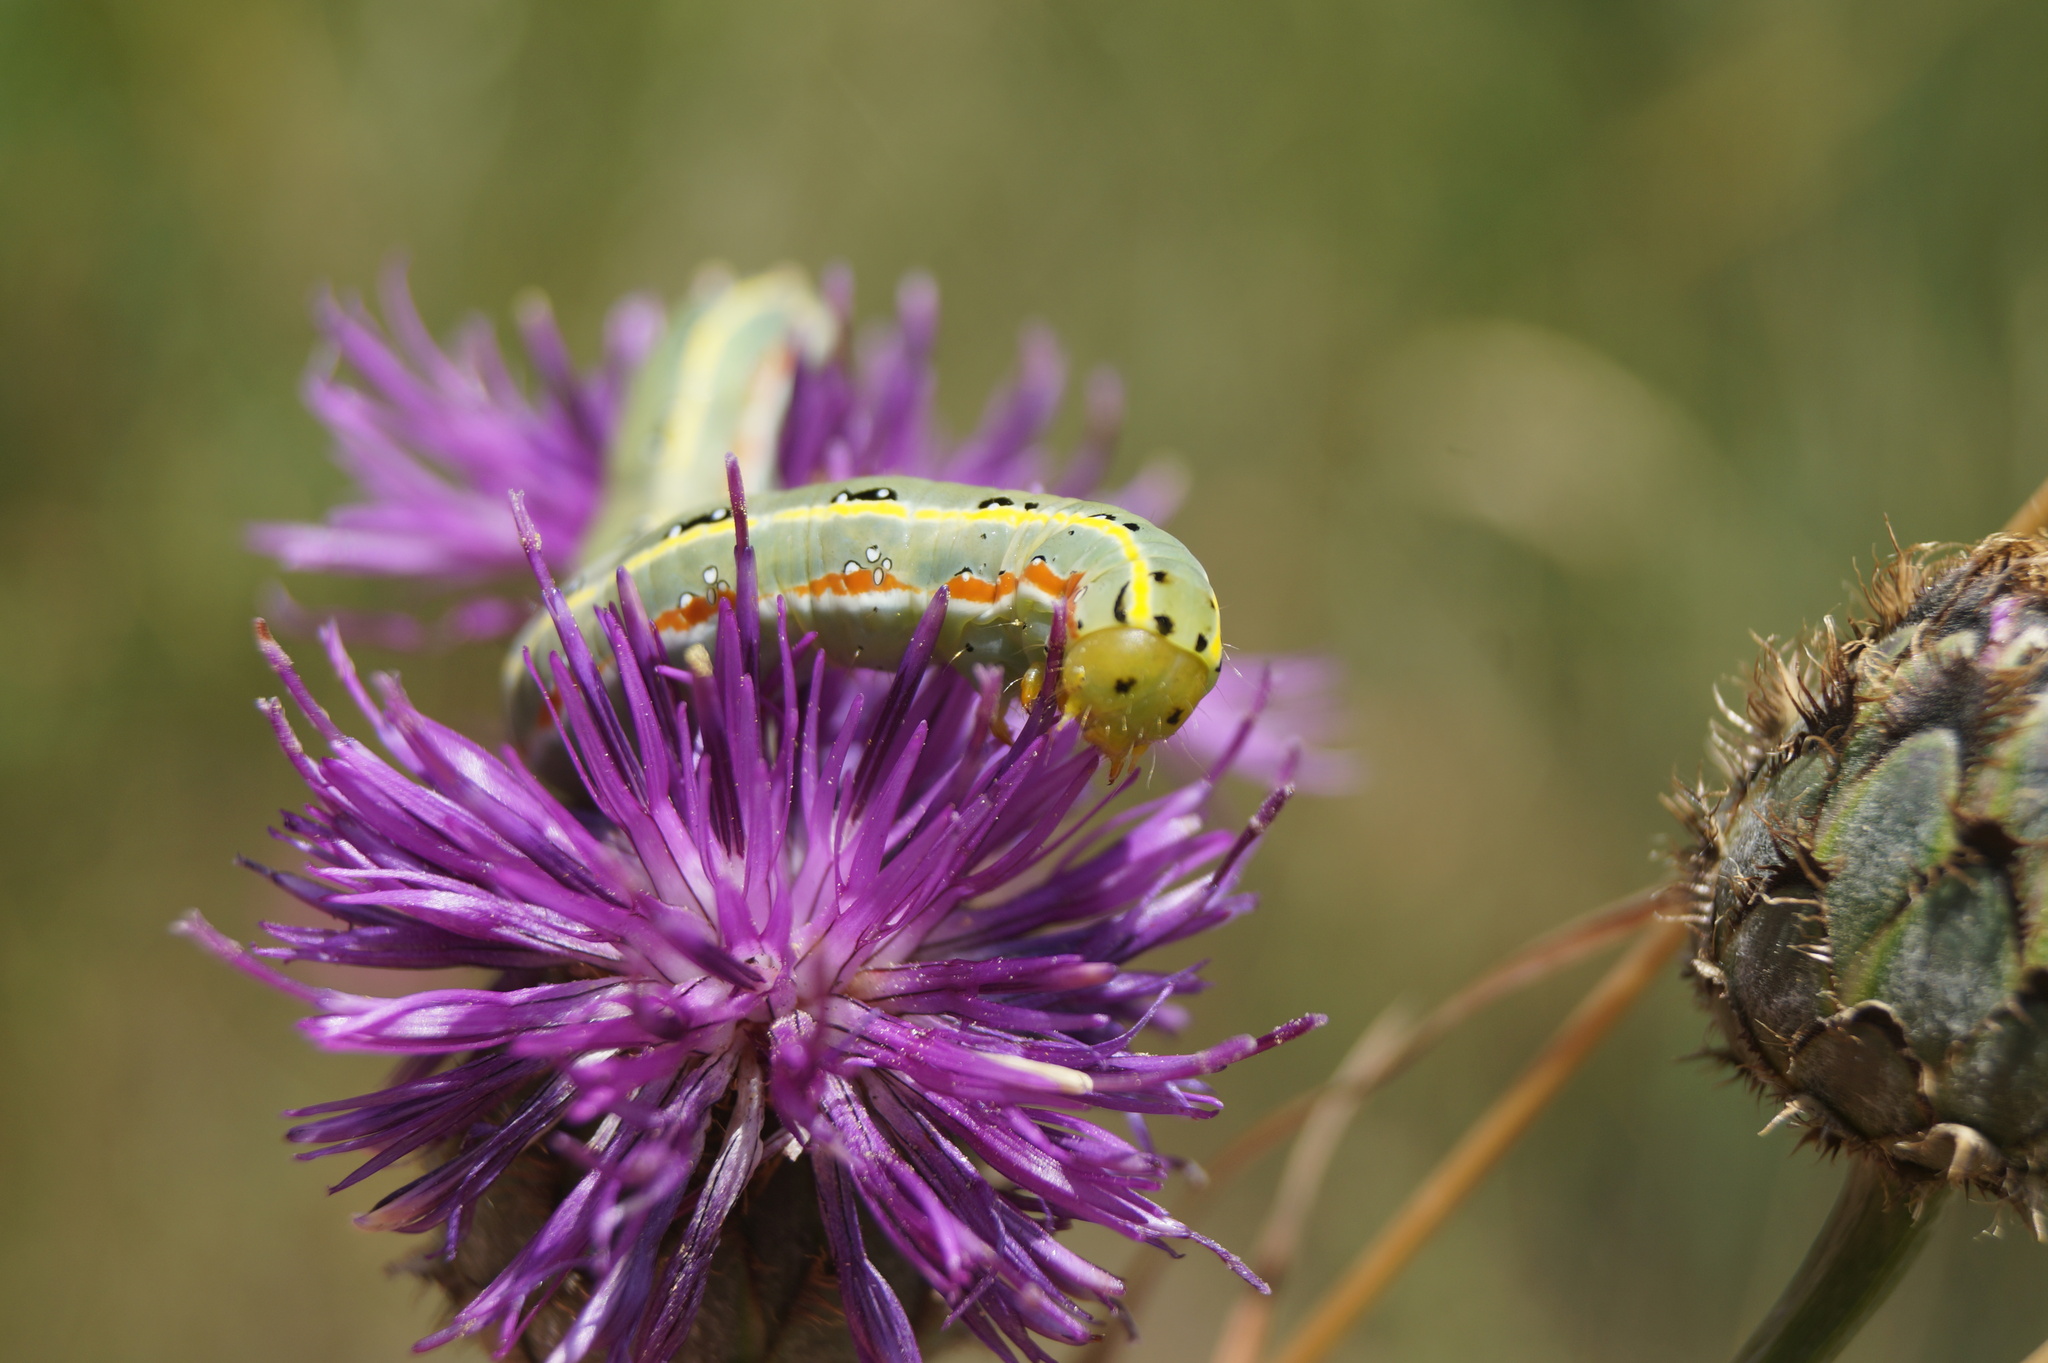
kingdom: Animalia
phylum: Arthropoda
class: Insecta
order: Lepidoptera
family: Noctuidae
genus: Xylena
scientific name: Xylena exsoleta
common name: Sword-grass
